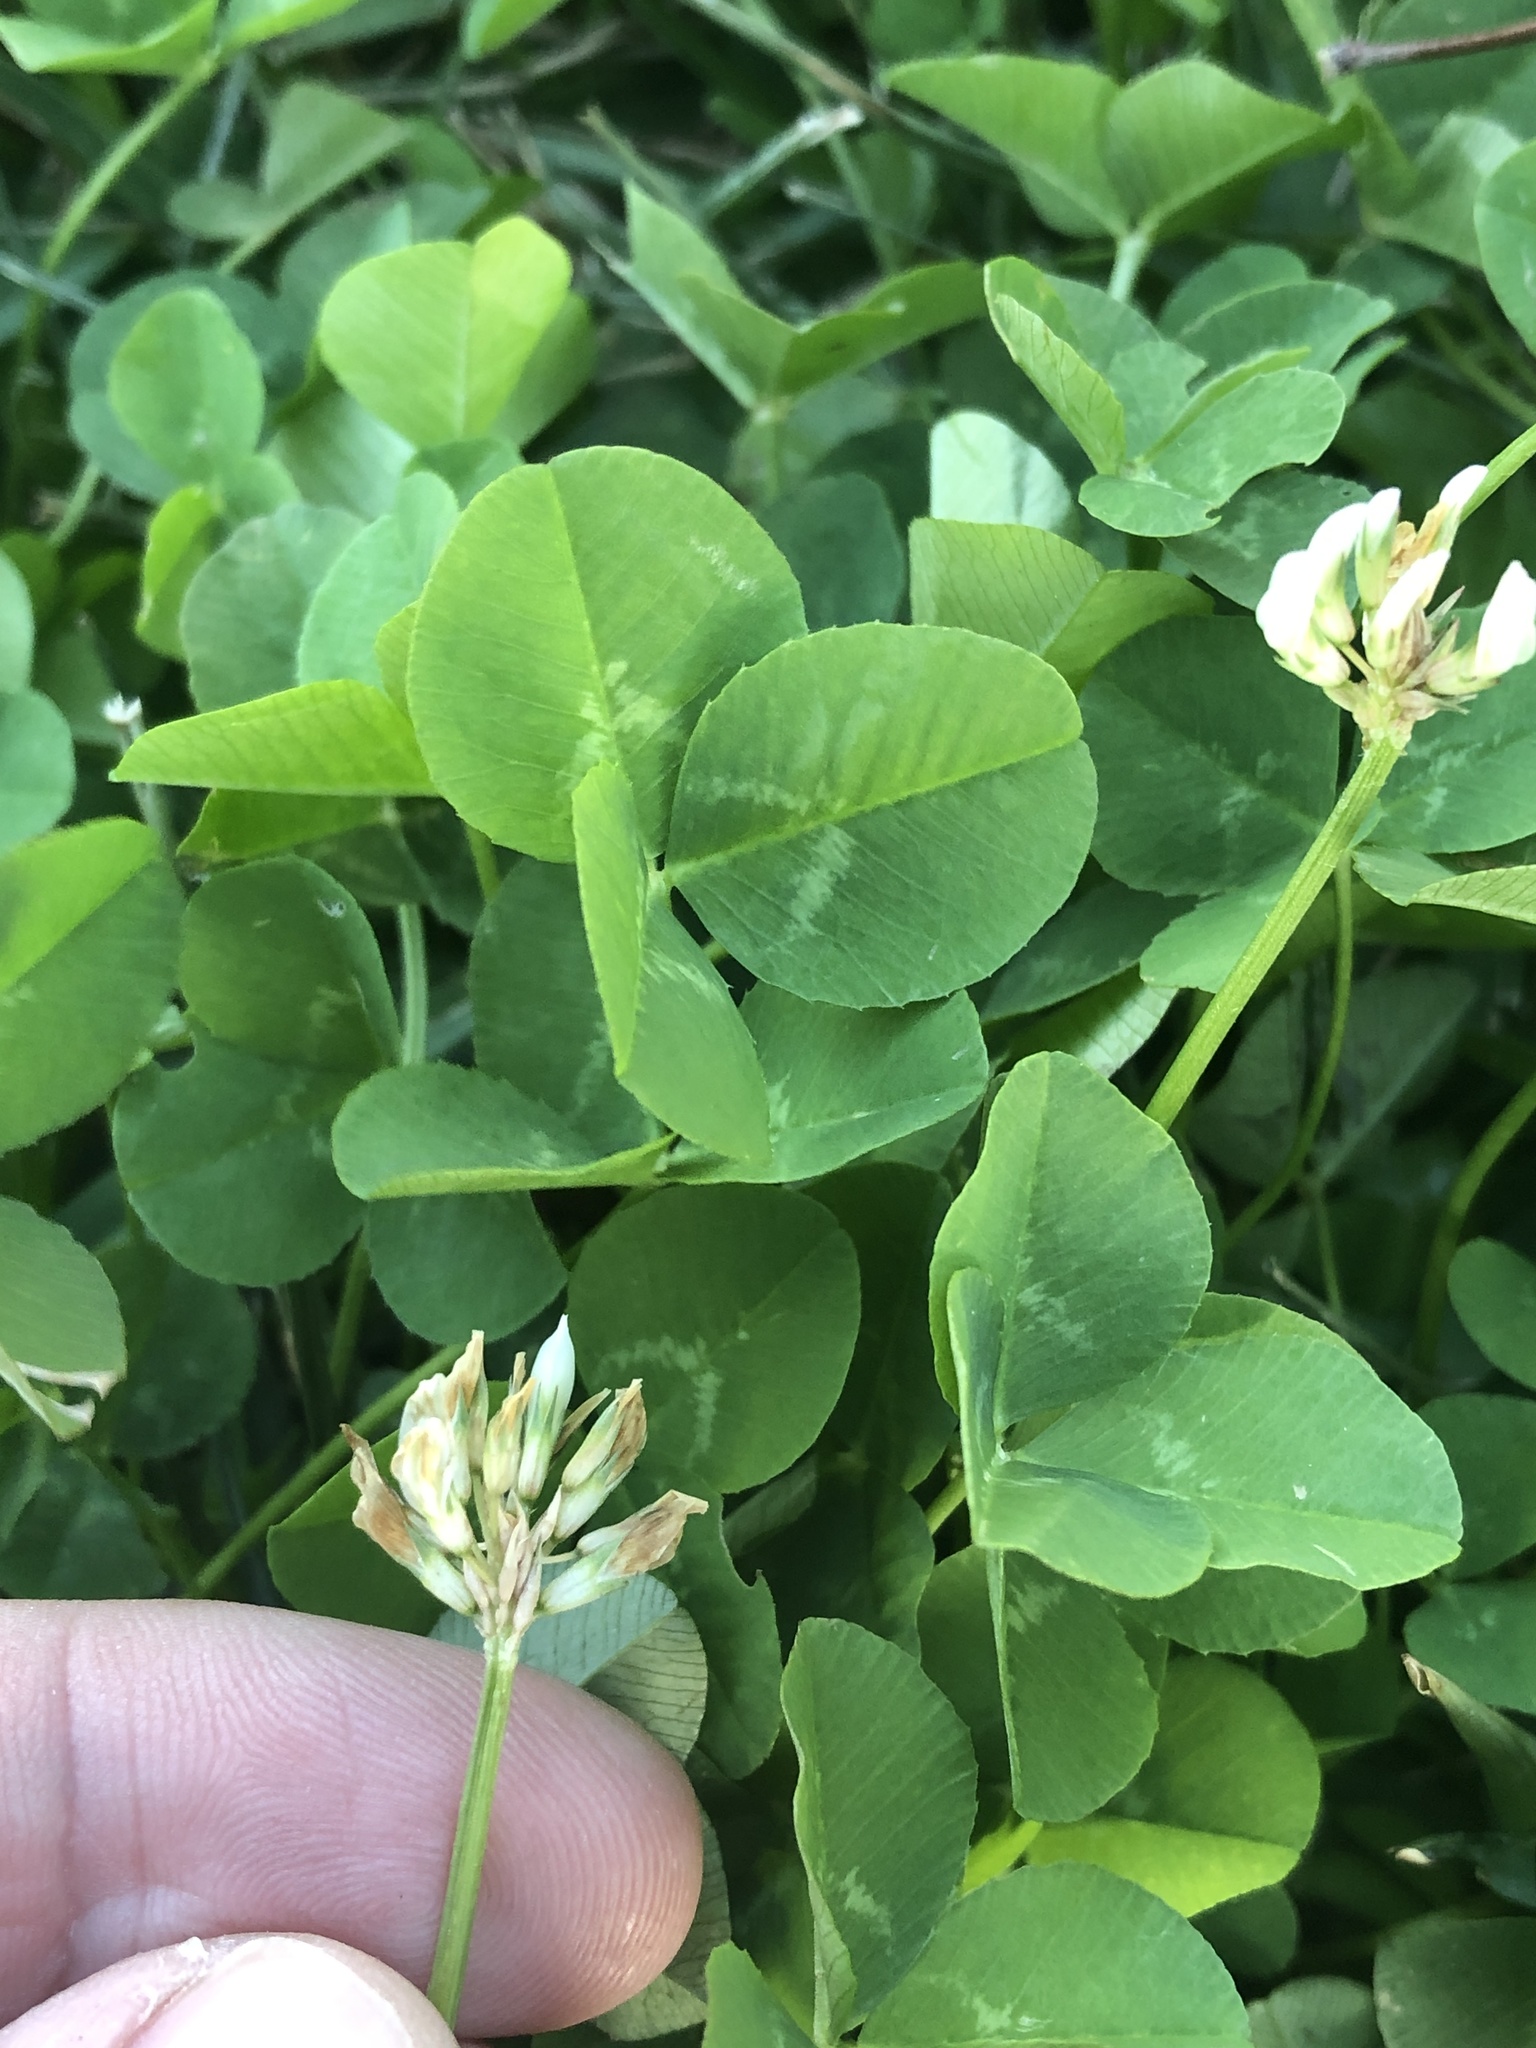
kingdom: Plantae
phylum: Tracheophyta
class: Magnoliopsida
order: Fabales
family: Fabaceae
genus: Trifolium
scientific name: Trifolium repens
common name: White clover
